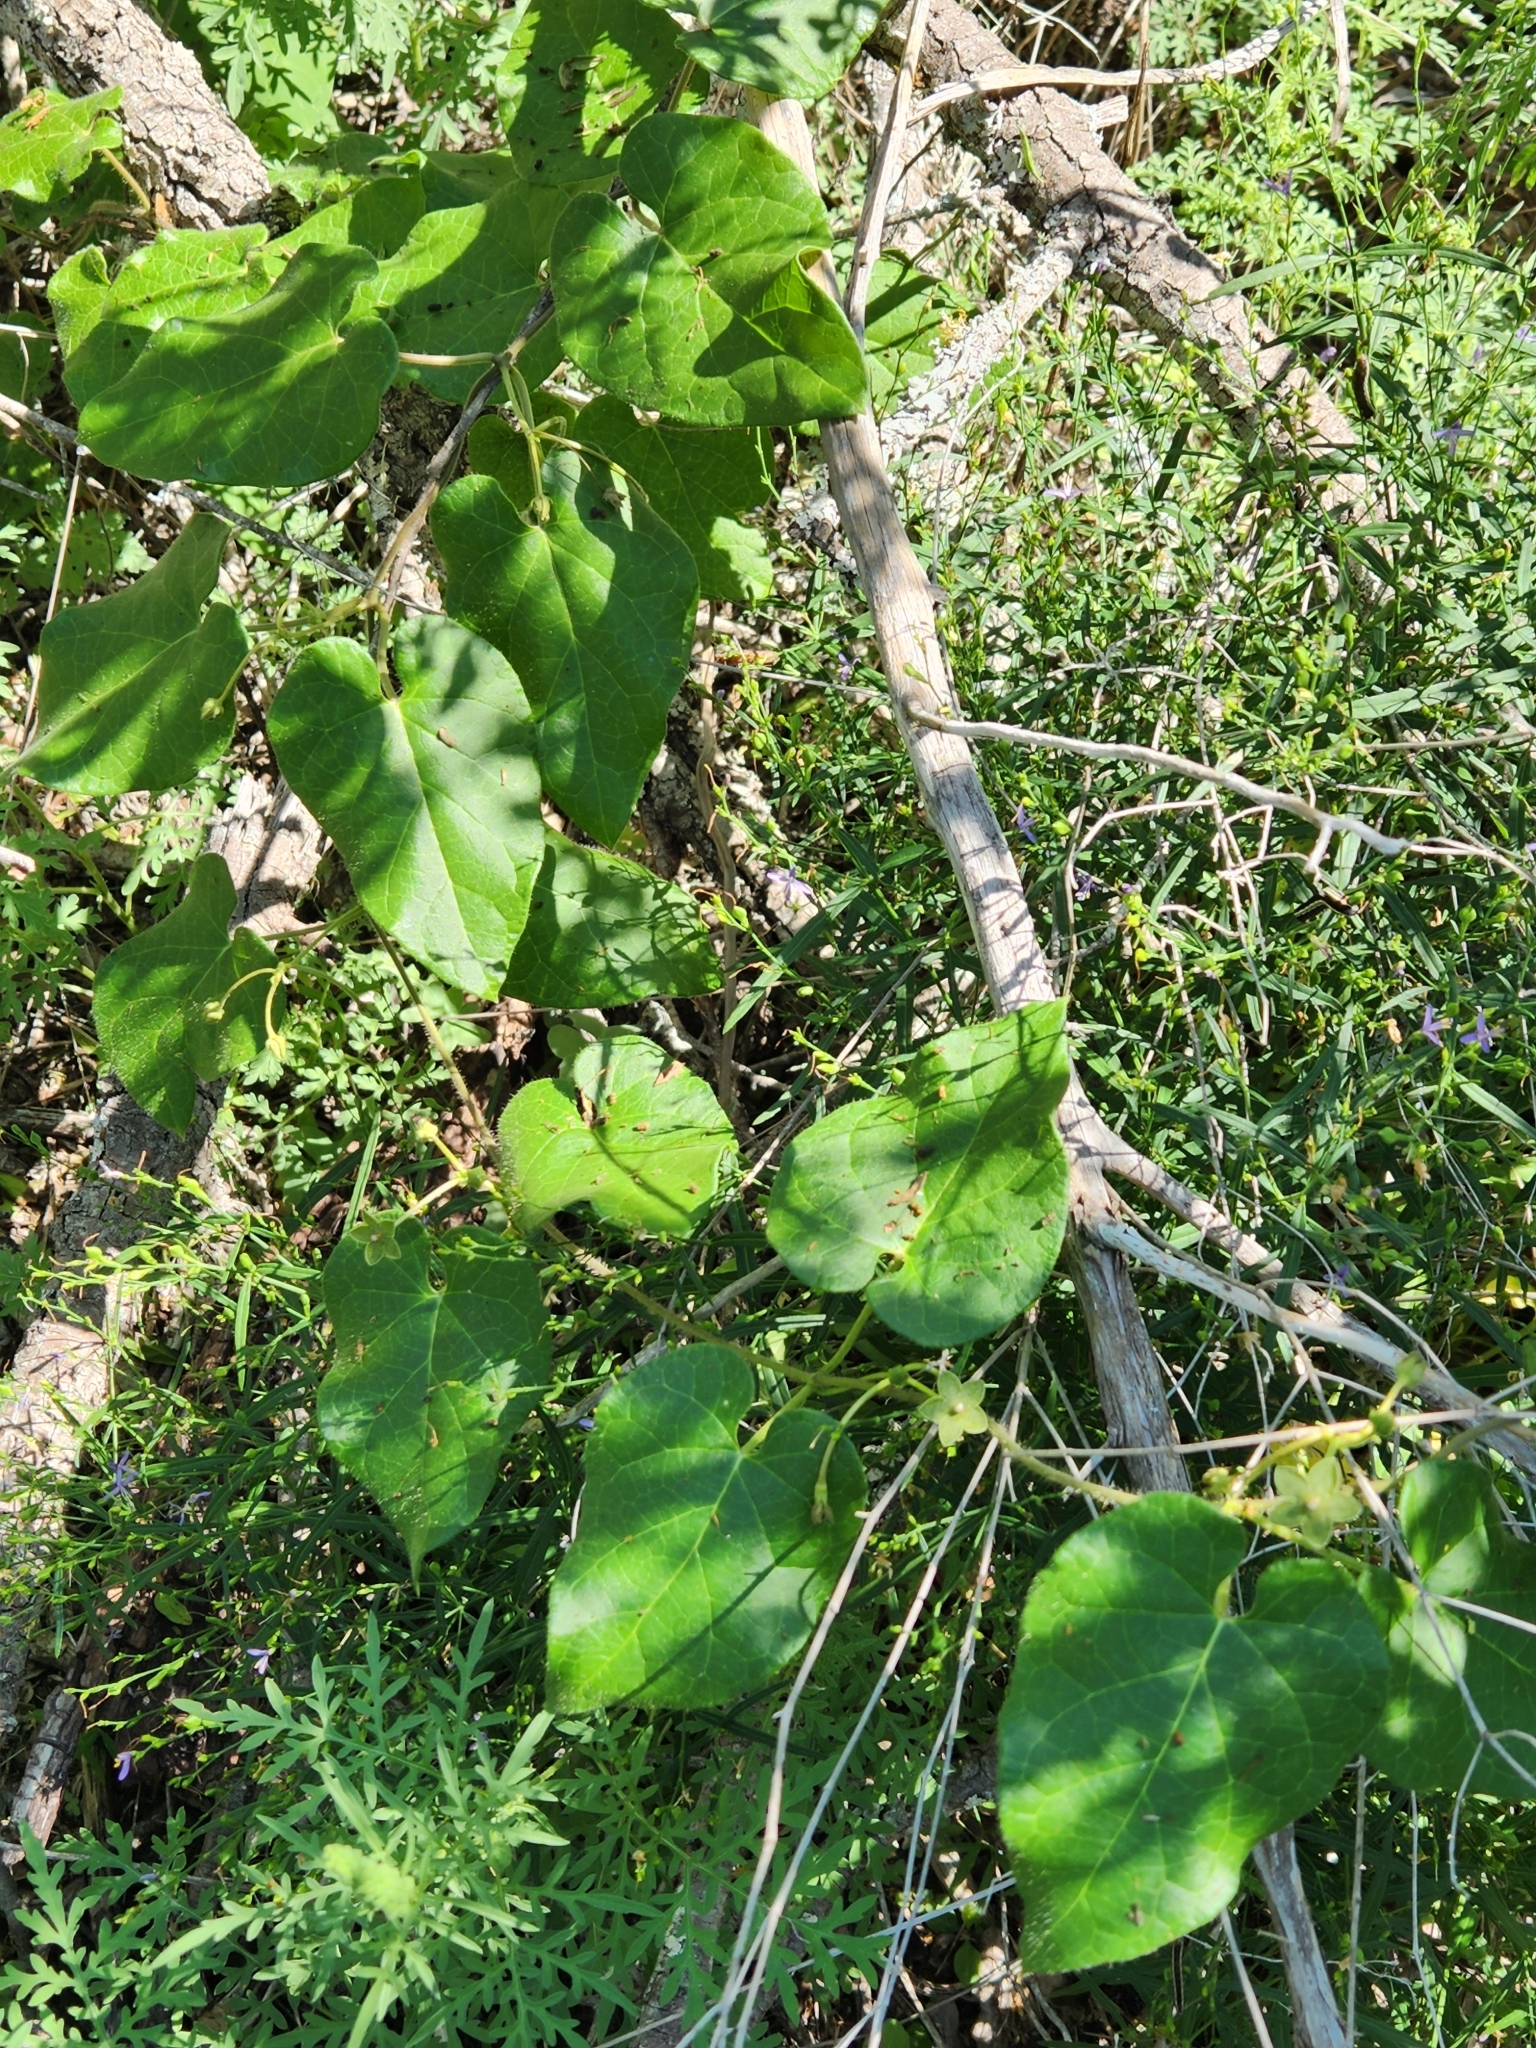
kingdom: Plantae
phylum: Tracheophyta
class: Magnoliopsida
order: Gentianales
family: Apocynaceae
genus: Dictyanthus
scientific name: Dictyanthus reticulatus
